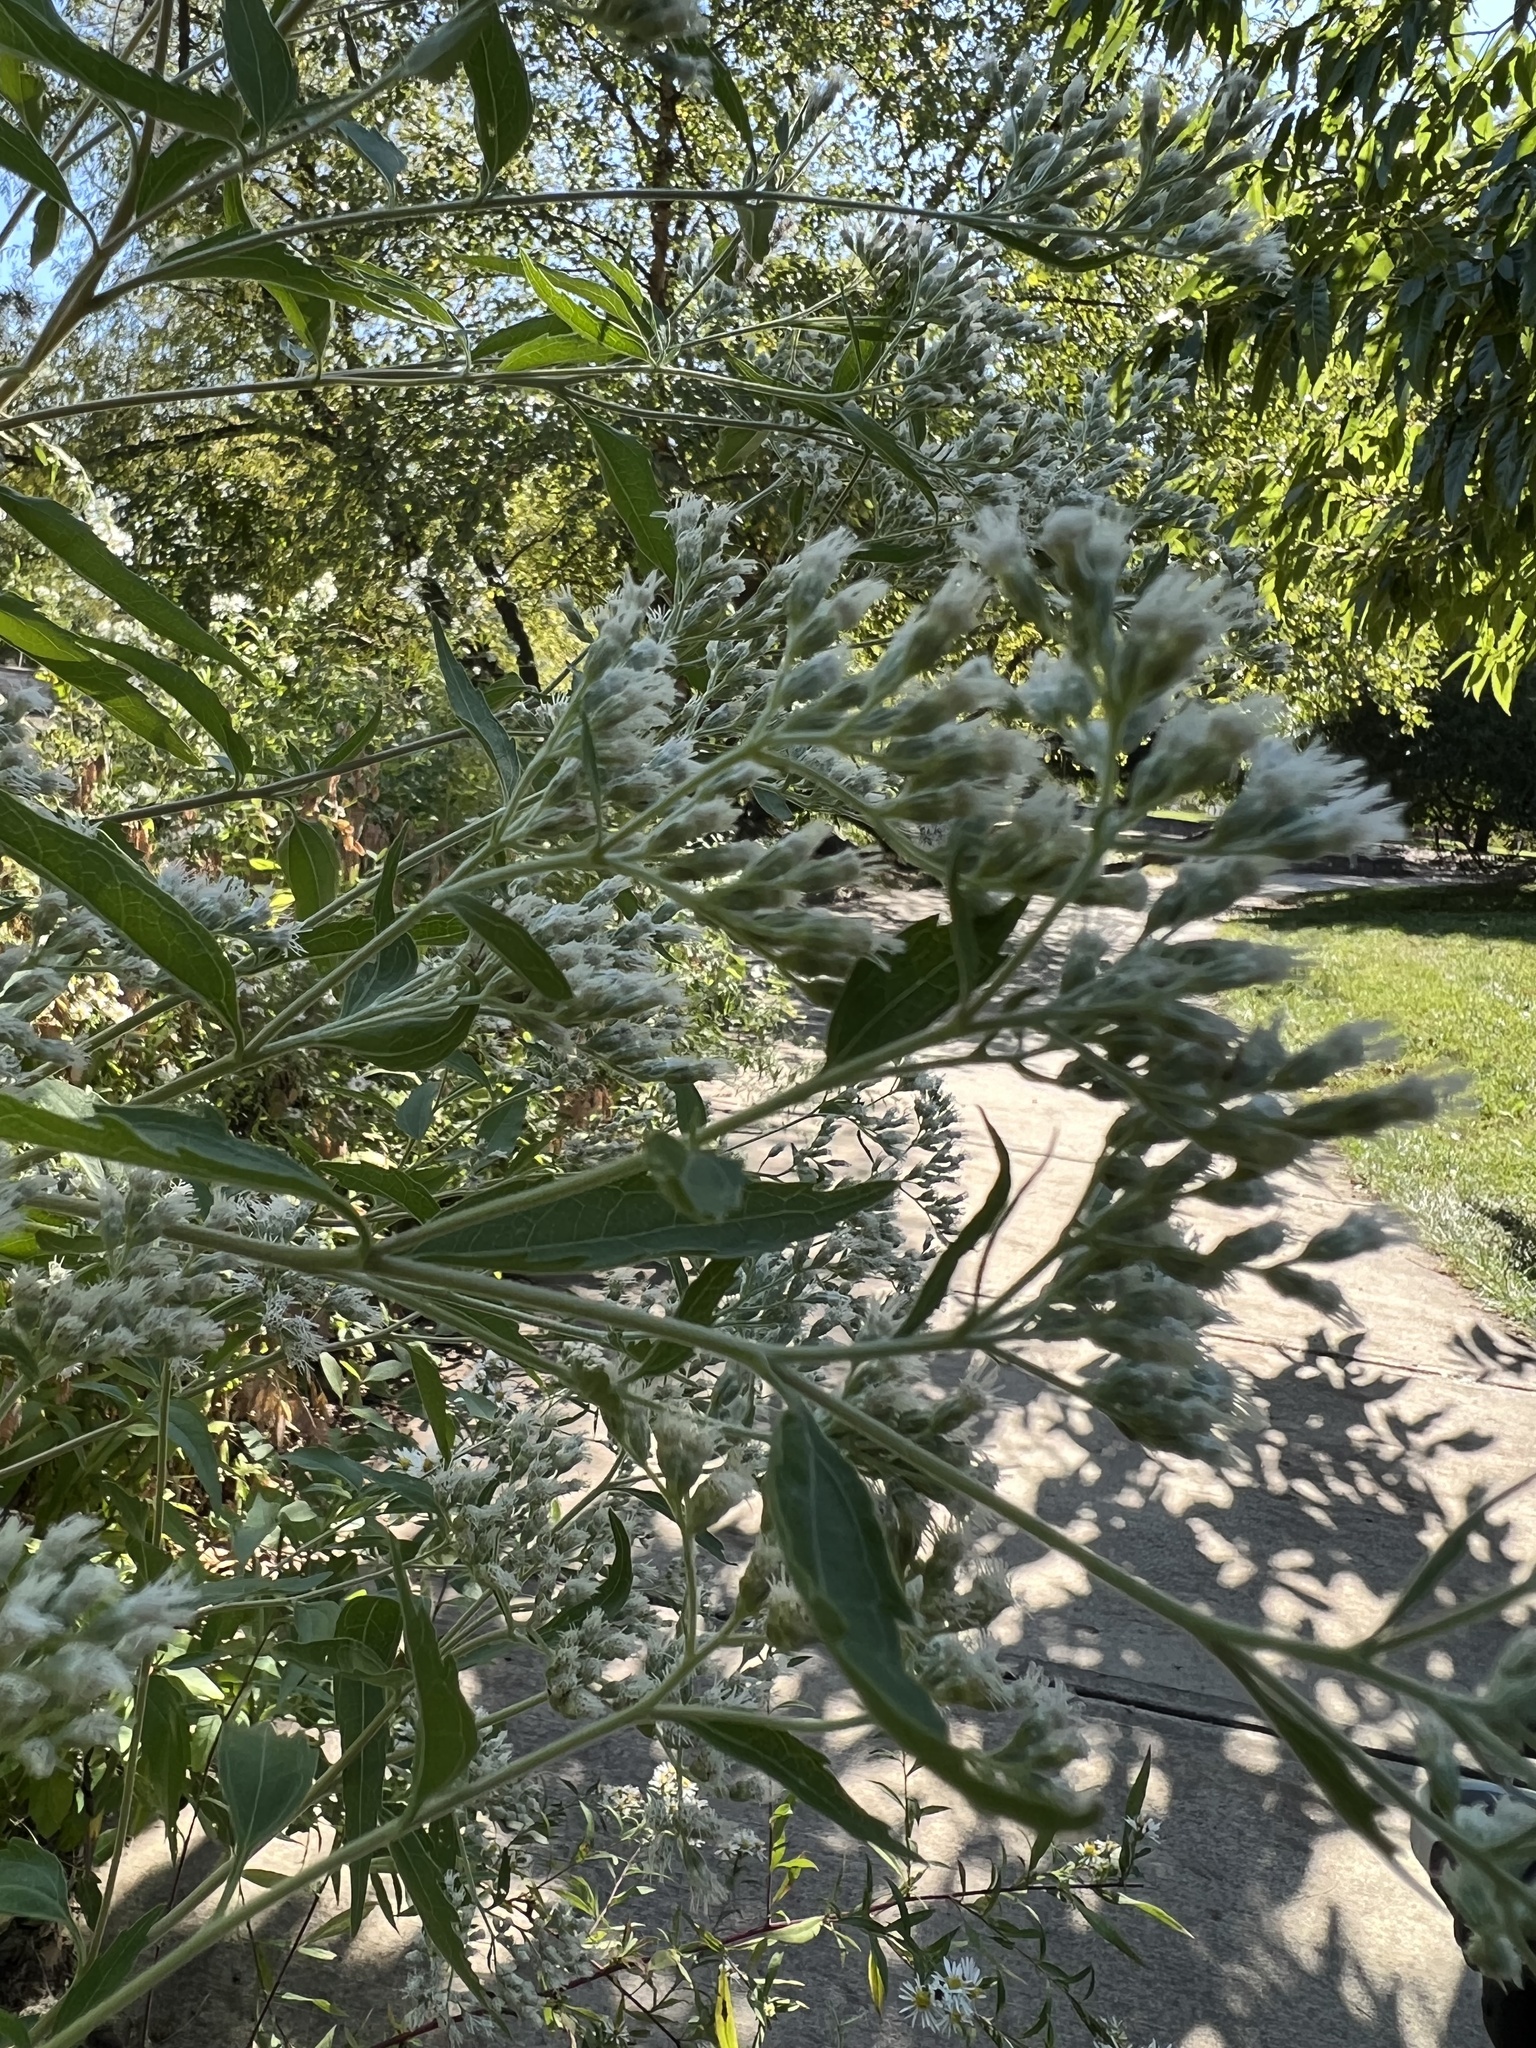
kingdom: Plantae
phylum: Tracheophyta
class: Magnoliopsida
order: Asterales
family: Asteraceae
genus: Eupatorium
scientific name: Eupatorium serotinum
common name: Late boneset
